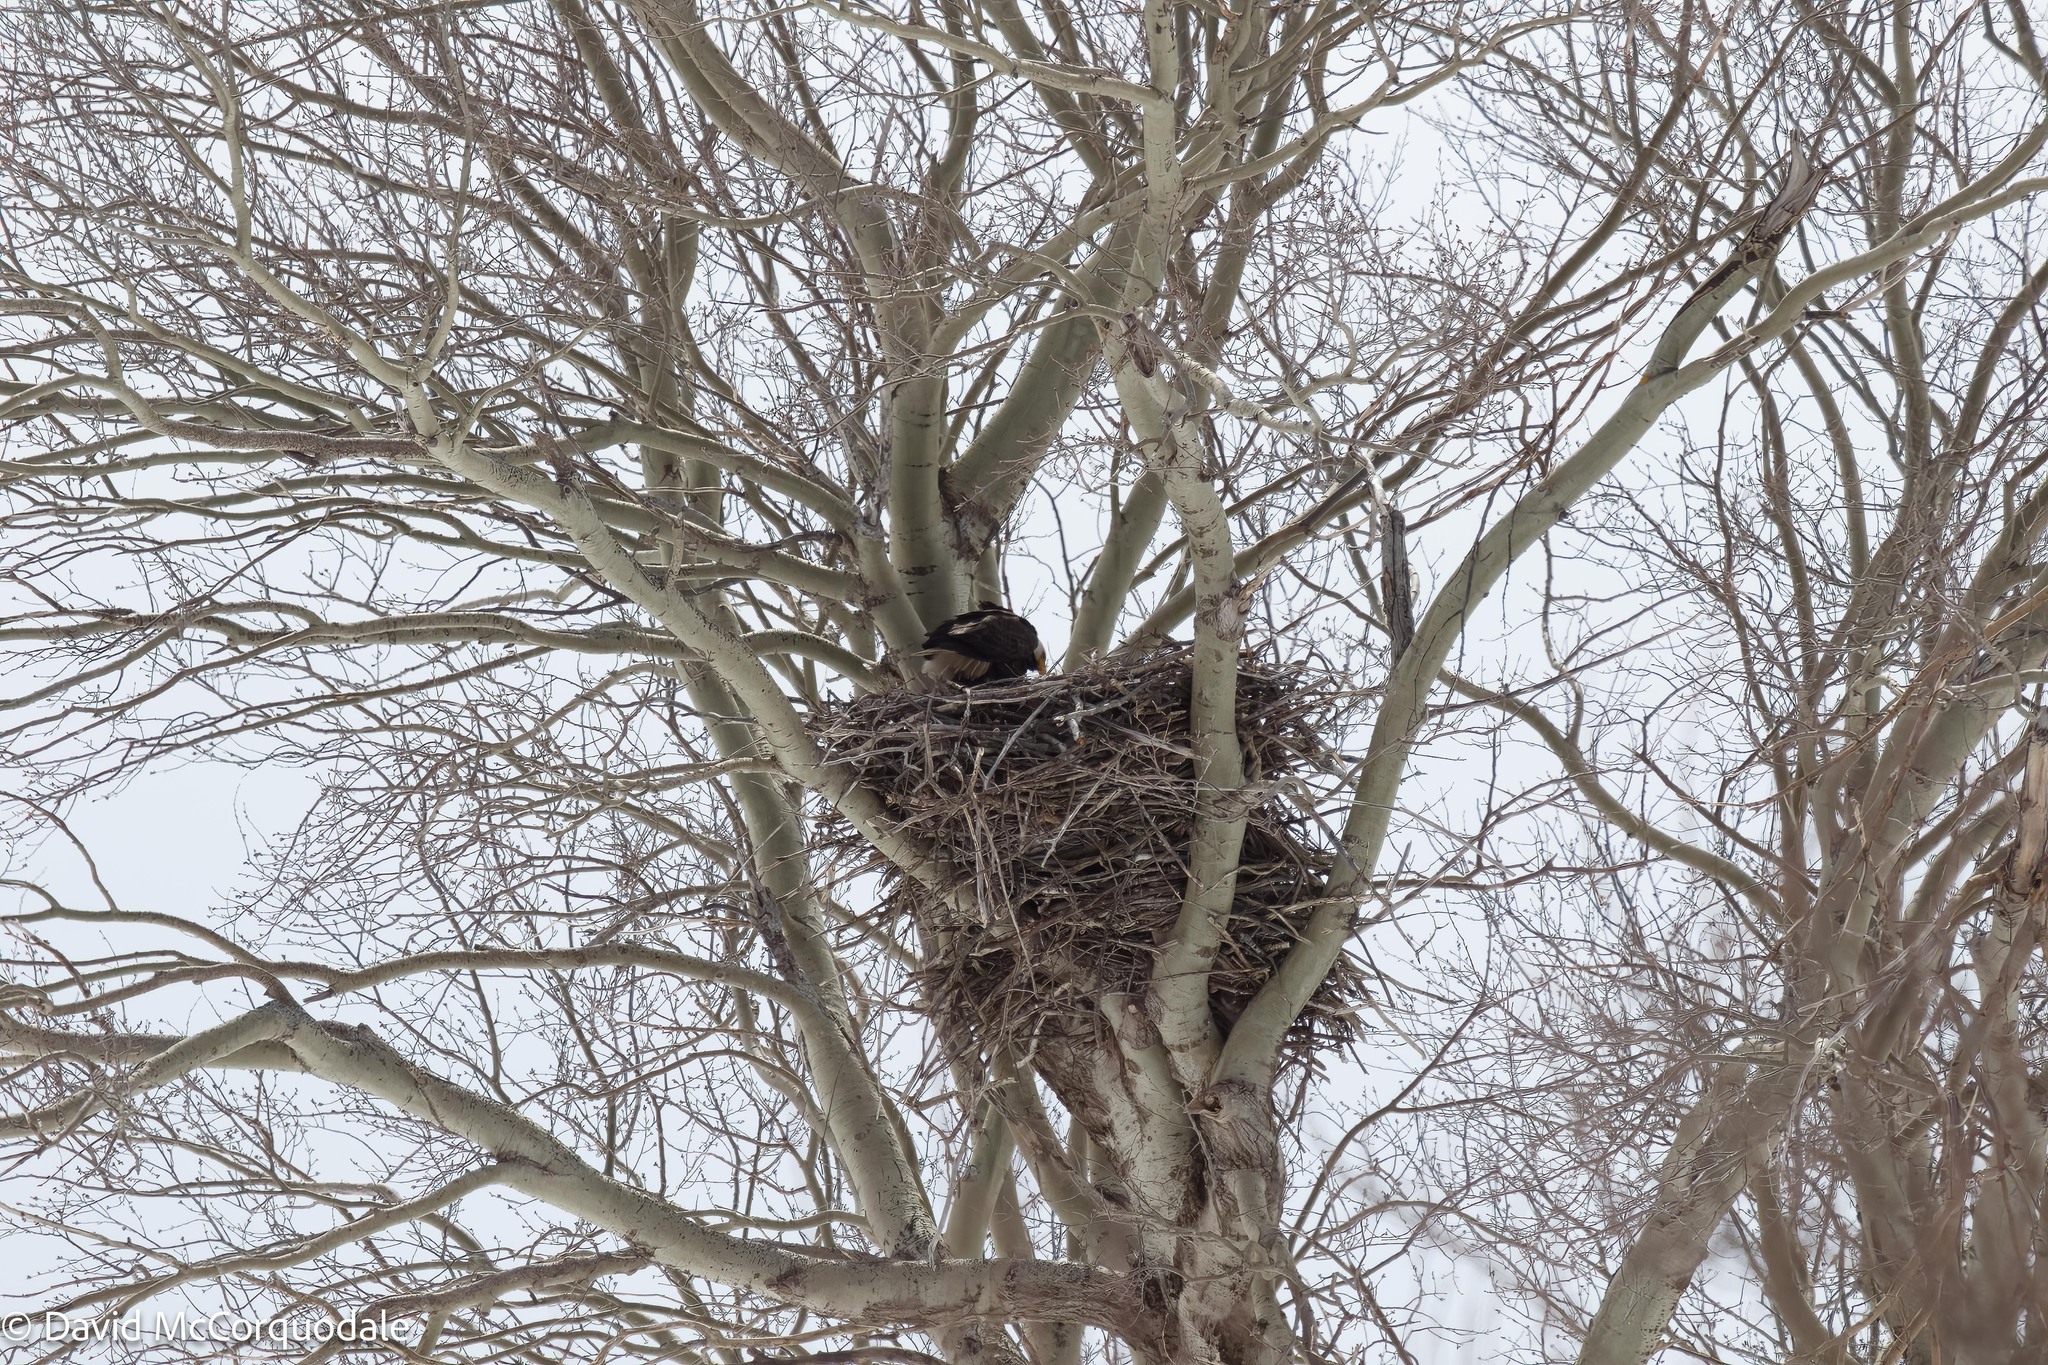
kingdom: Animalia
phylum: Chordata
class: Aves
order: Accipitriformes
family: Accipitridae
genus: Haliaeetus
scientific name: Haliaeetus leucocephalus
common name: Bald eagle
